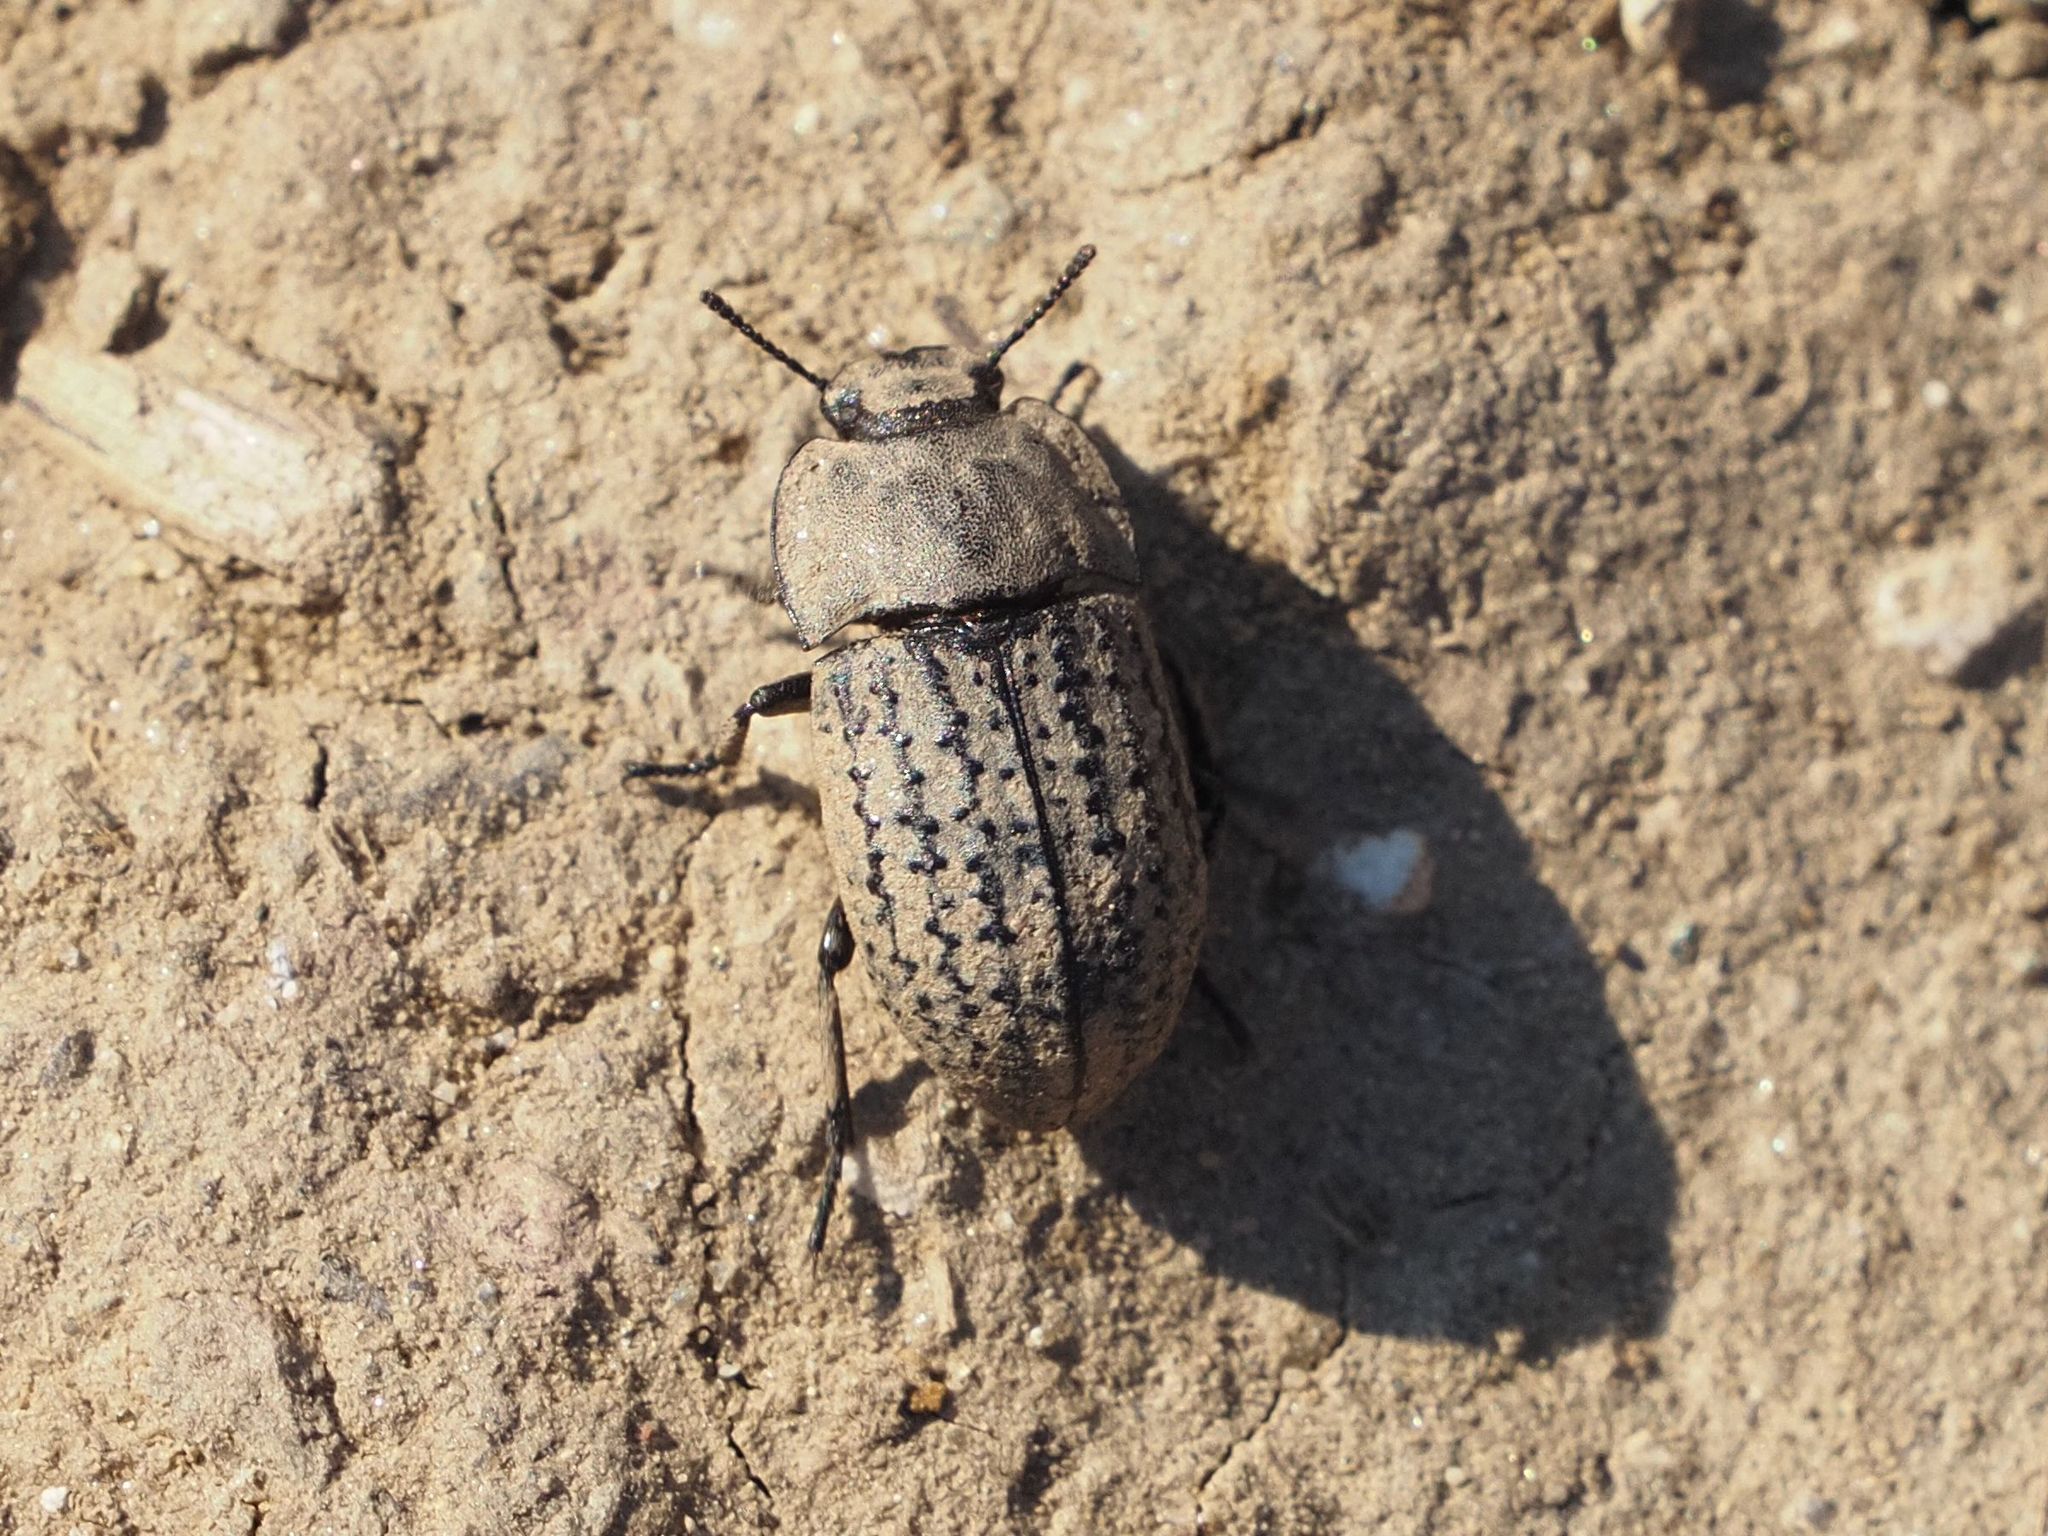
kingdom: Animalia
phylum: Arthropoda
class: Insecta
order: Coleoptera
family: Tenebrionidae
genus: Opatrum
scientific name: Opatrum sabulosum
